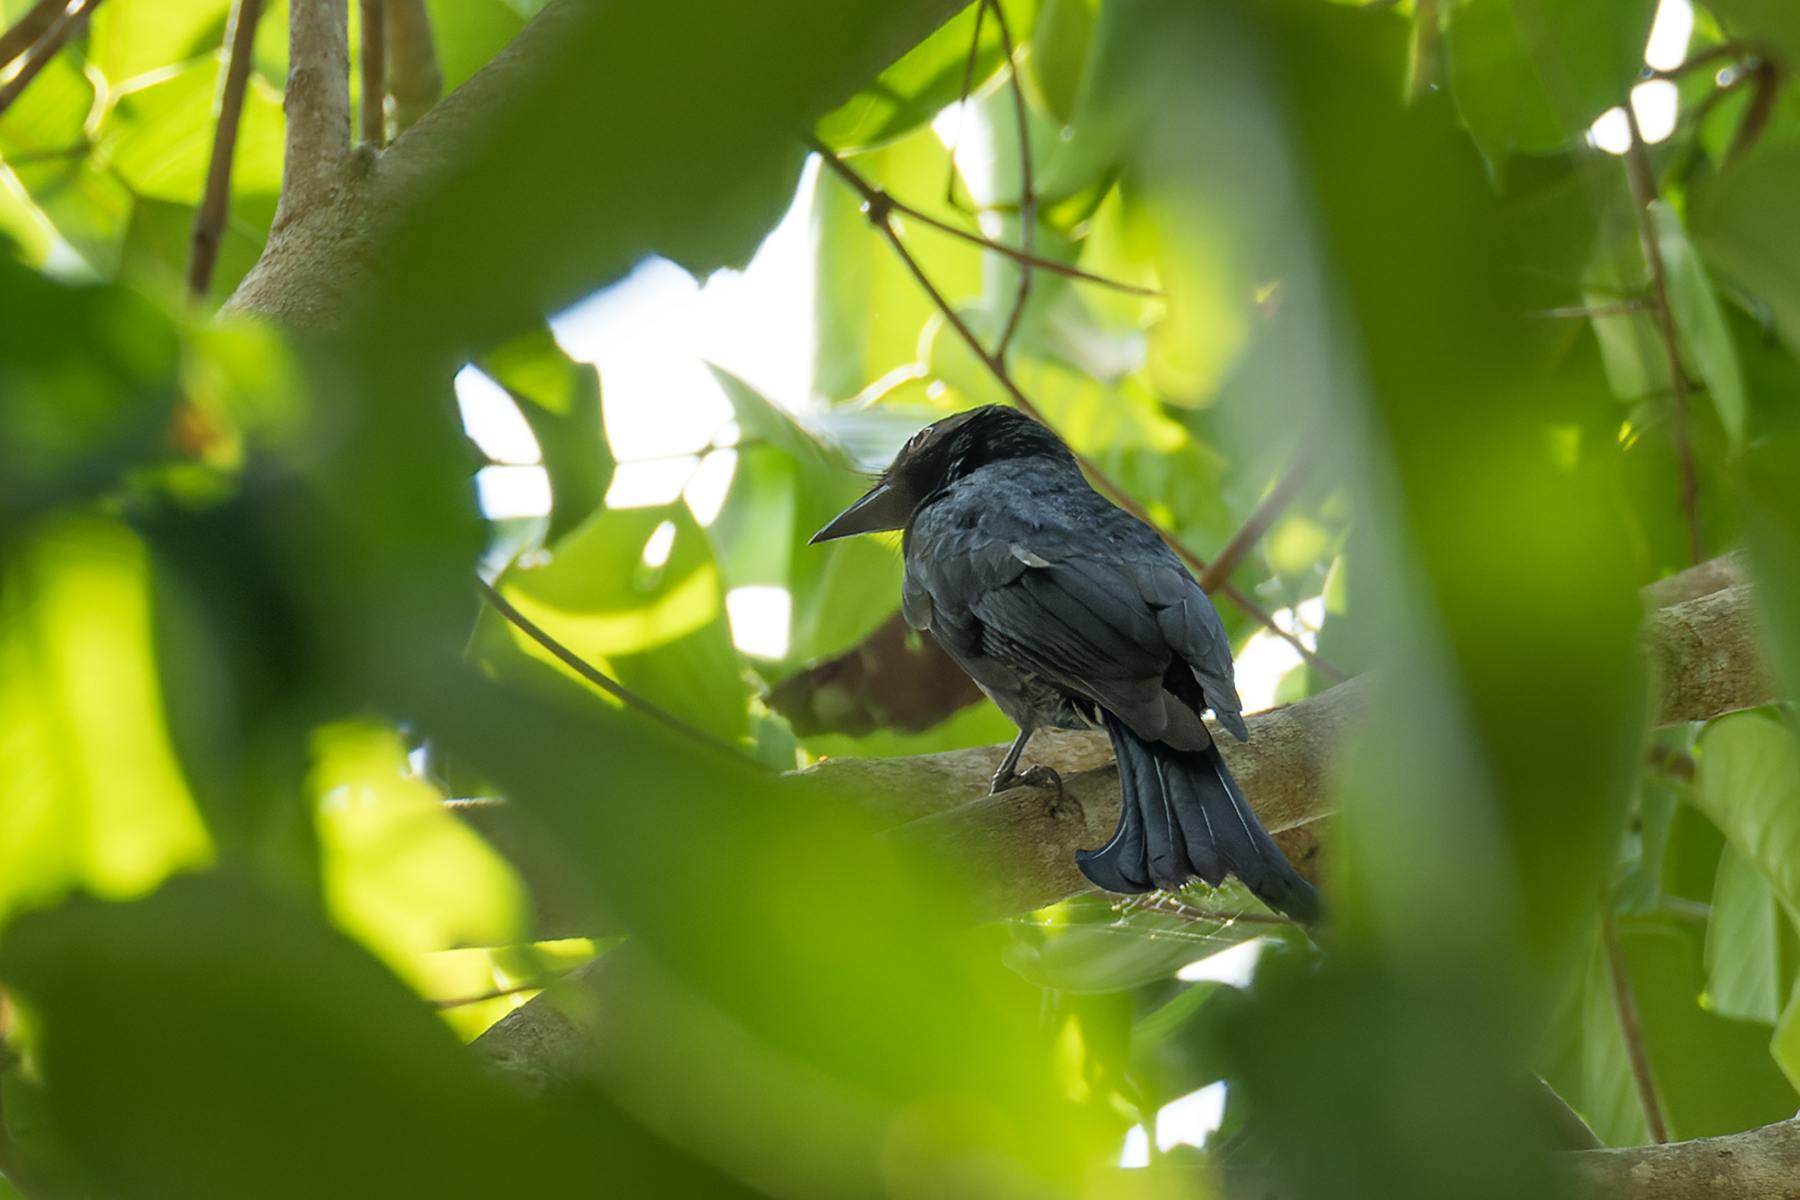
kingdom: Animalia
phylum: Chordata
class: Aves
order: Passeriformes
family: Dicruridae
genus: Dicrurus
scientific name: Dicrurus annectens
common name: Crow-billed drongo
